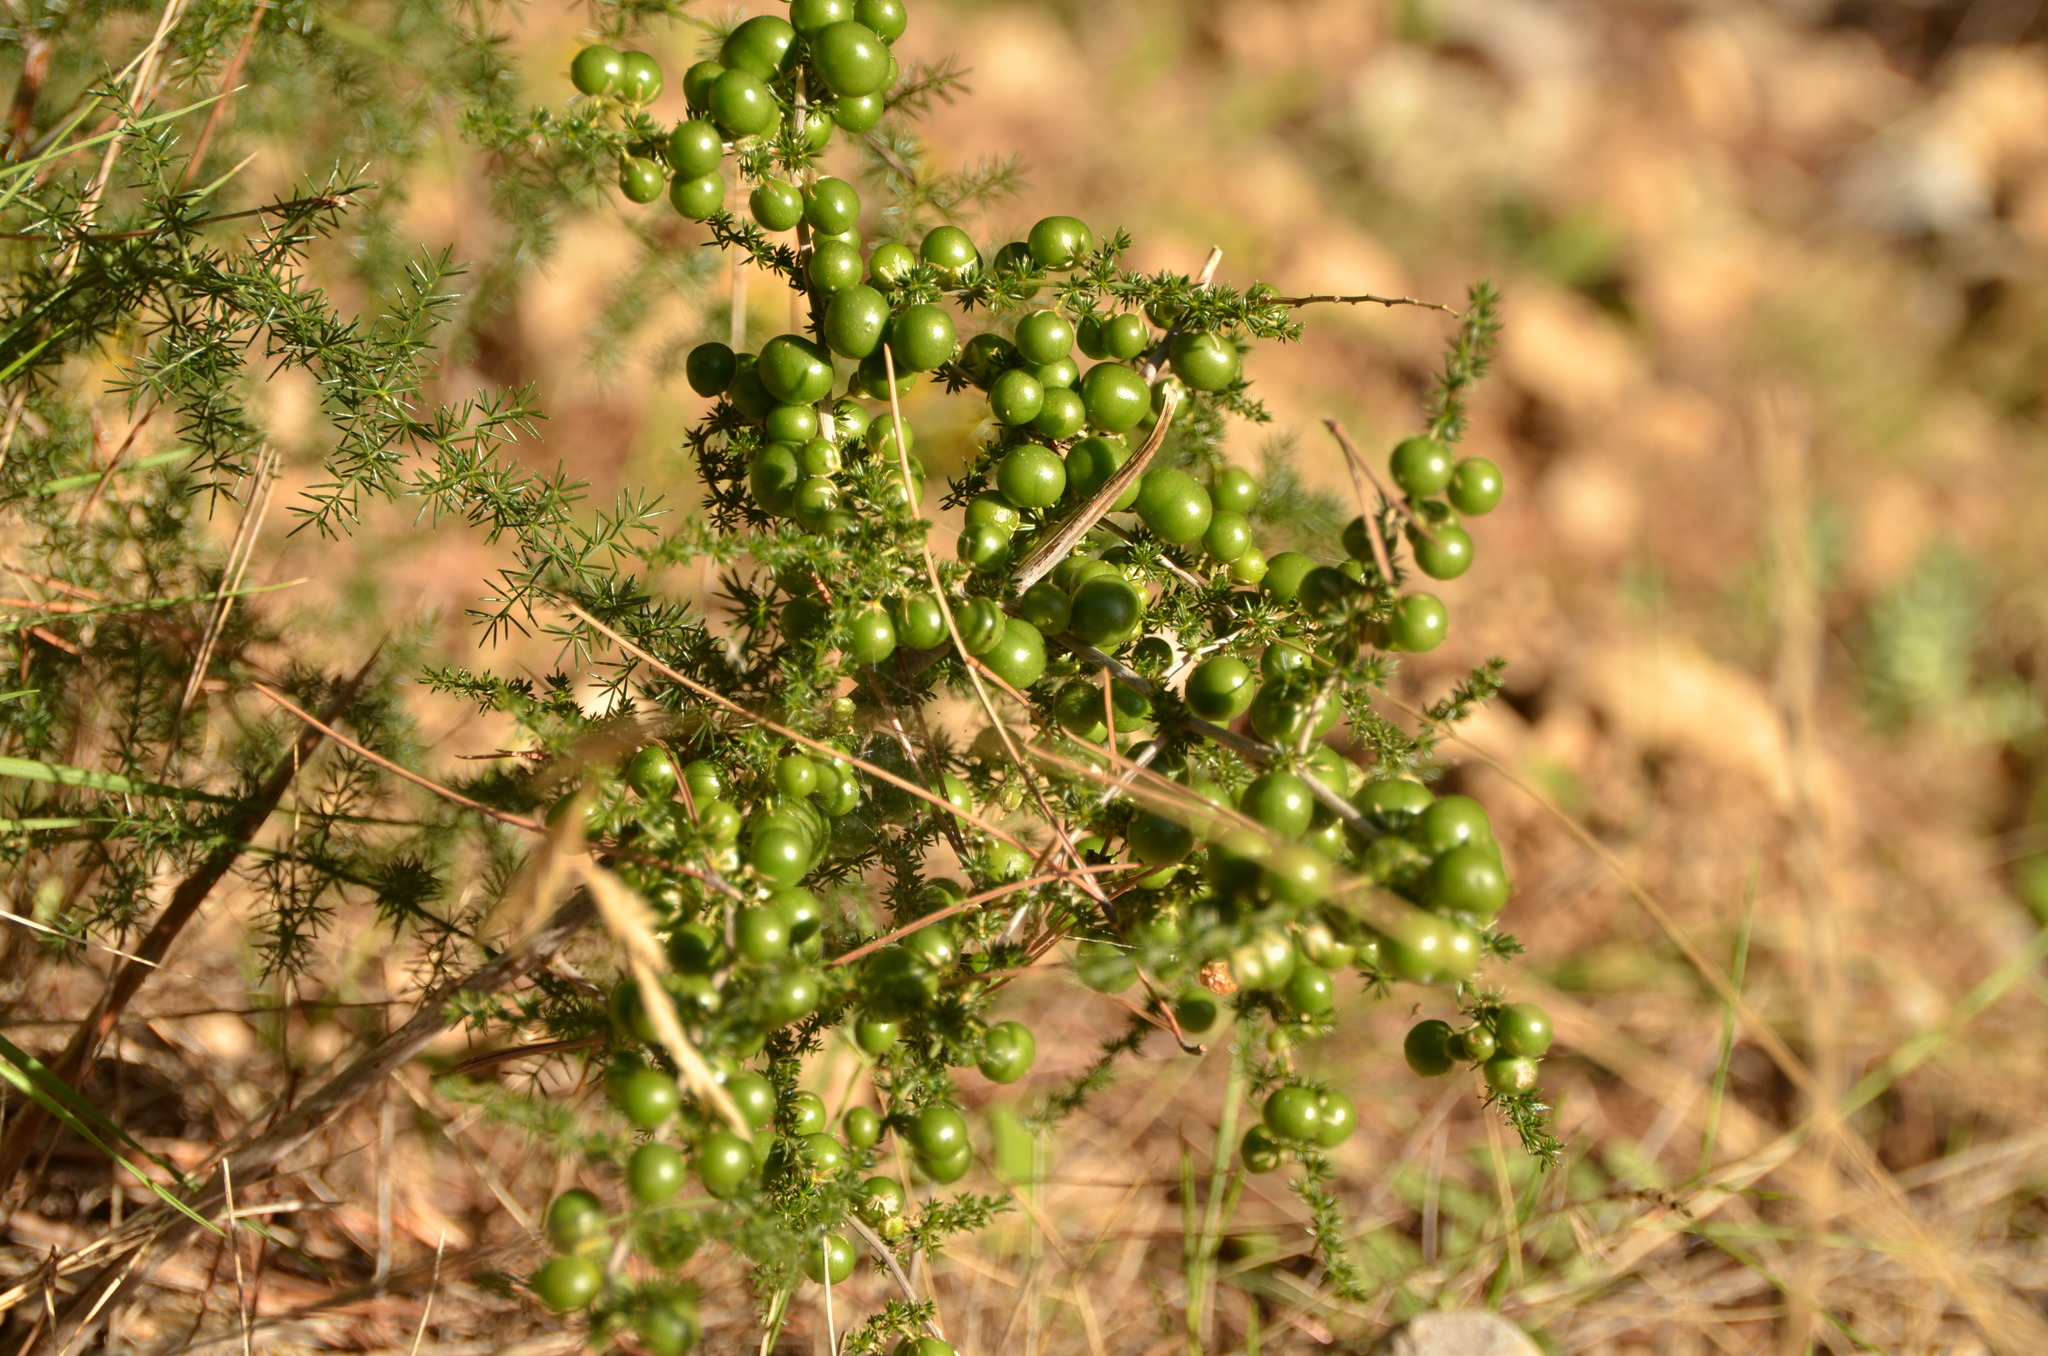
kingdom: Plantae
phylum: Tracheophyta
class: Liliopsida
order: Asparagales
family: Asparagaceae
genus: Asparagus
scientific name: Asparagus acutifolius
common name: Wild asparagus
